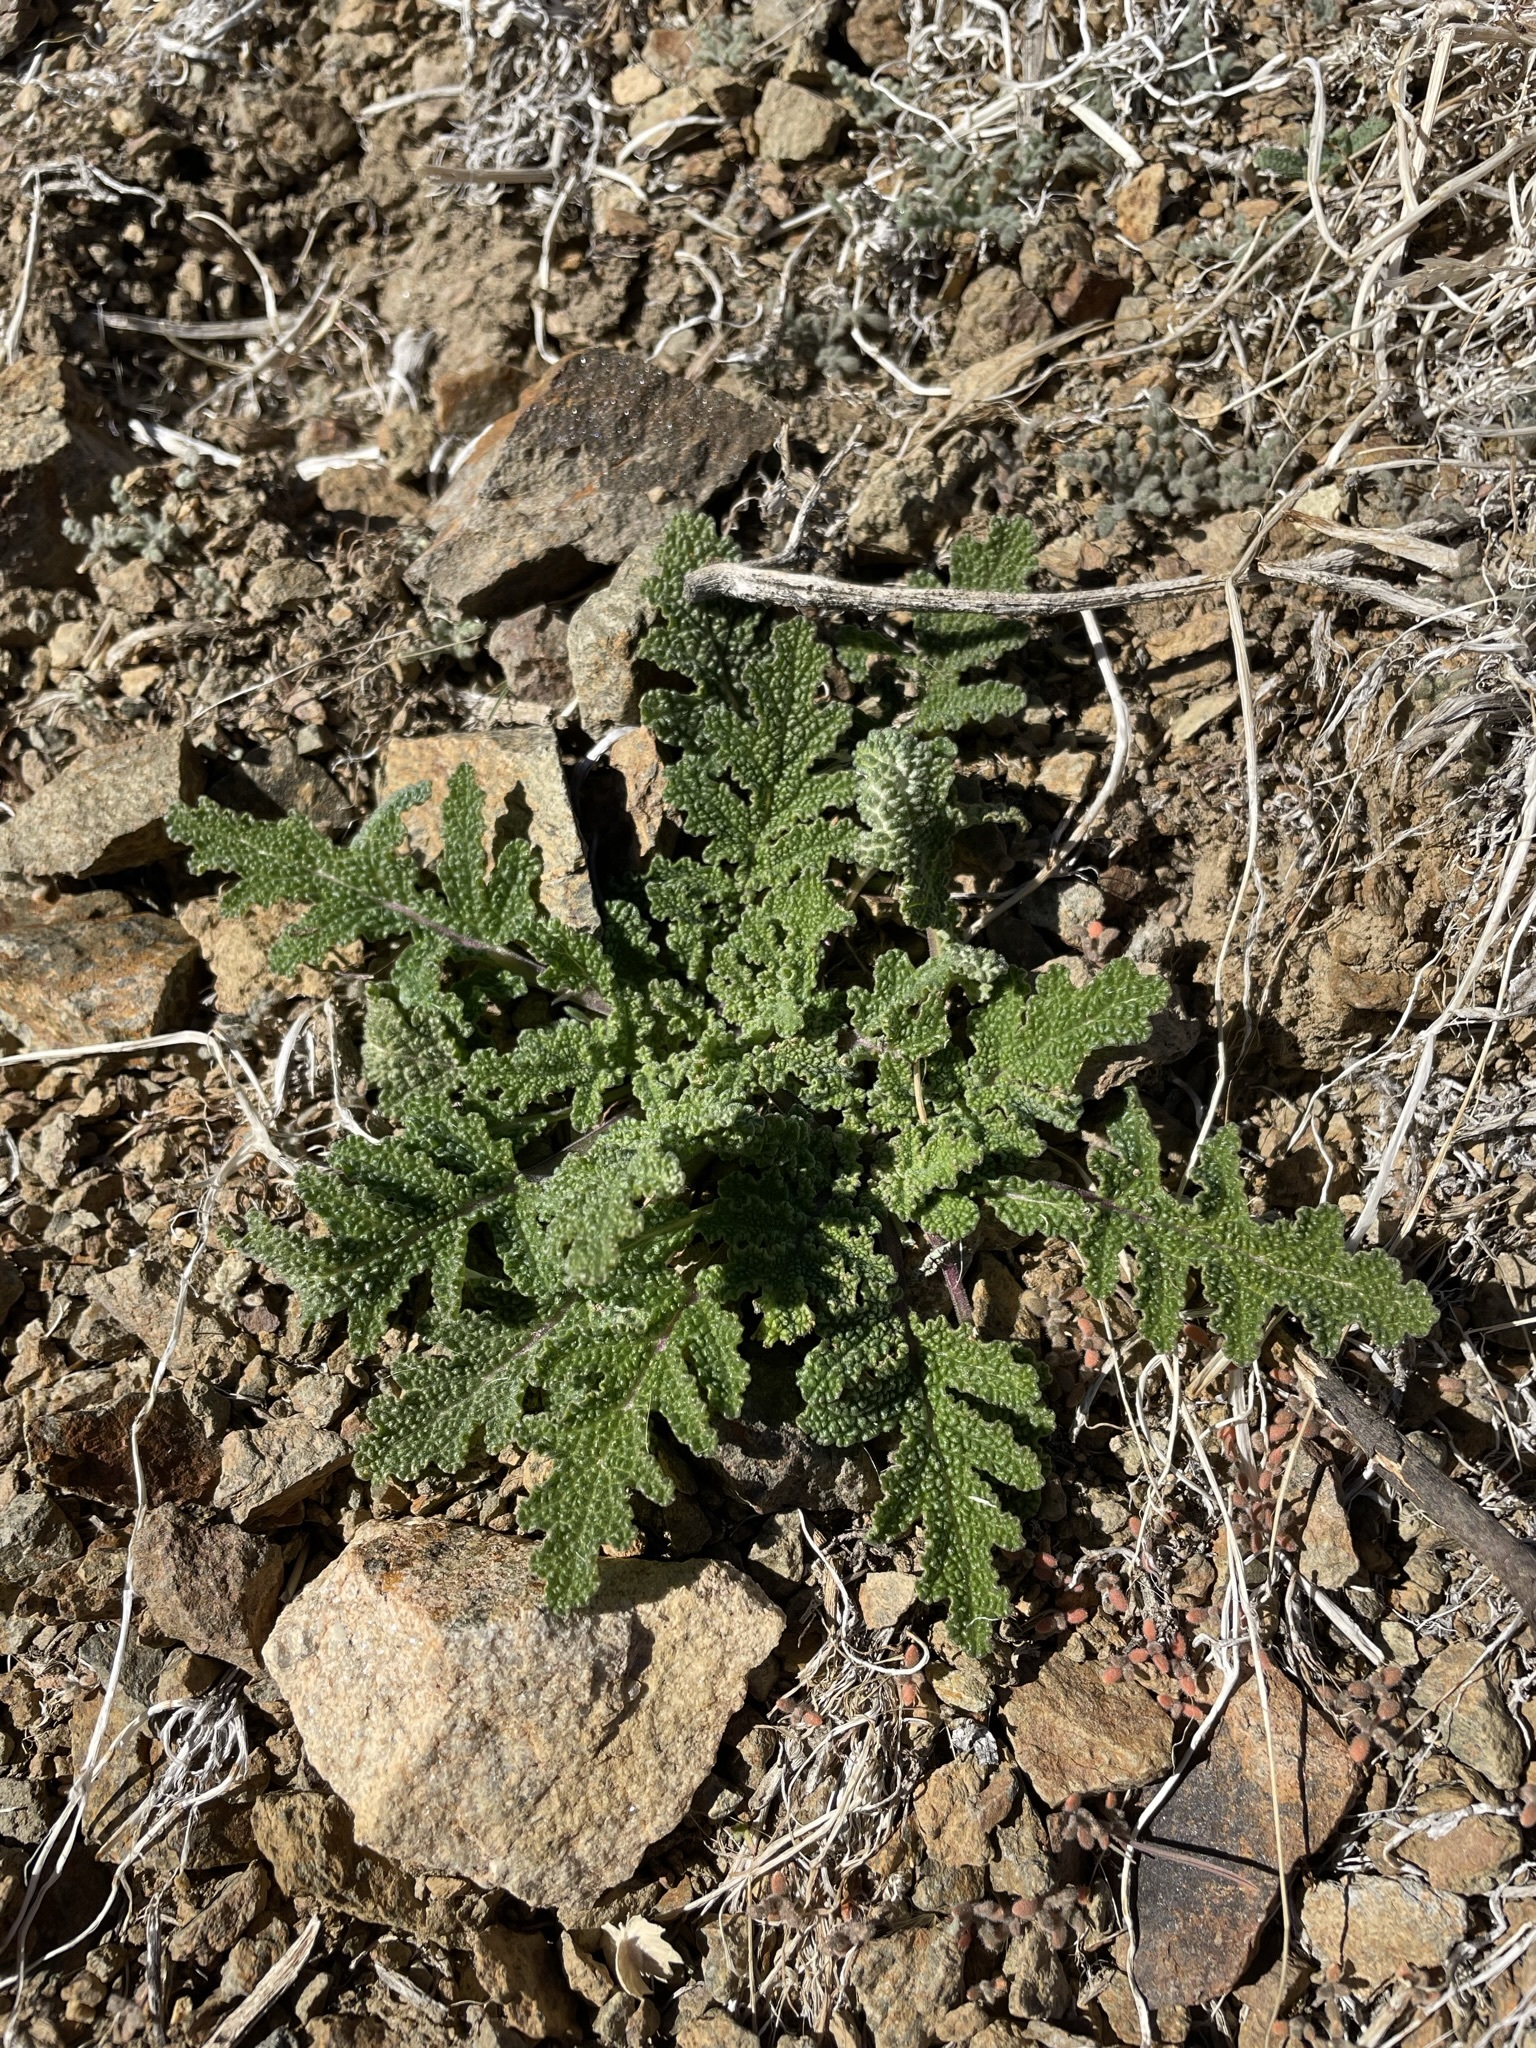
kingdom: Plantae
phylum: Tracheophyta
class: Magnoliopsida
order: Lamiales
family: Lamiaceae
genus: Salvia
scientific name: Salvia columbariae
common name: Chia
